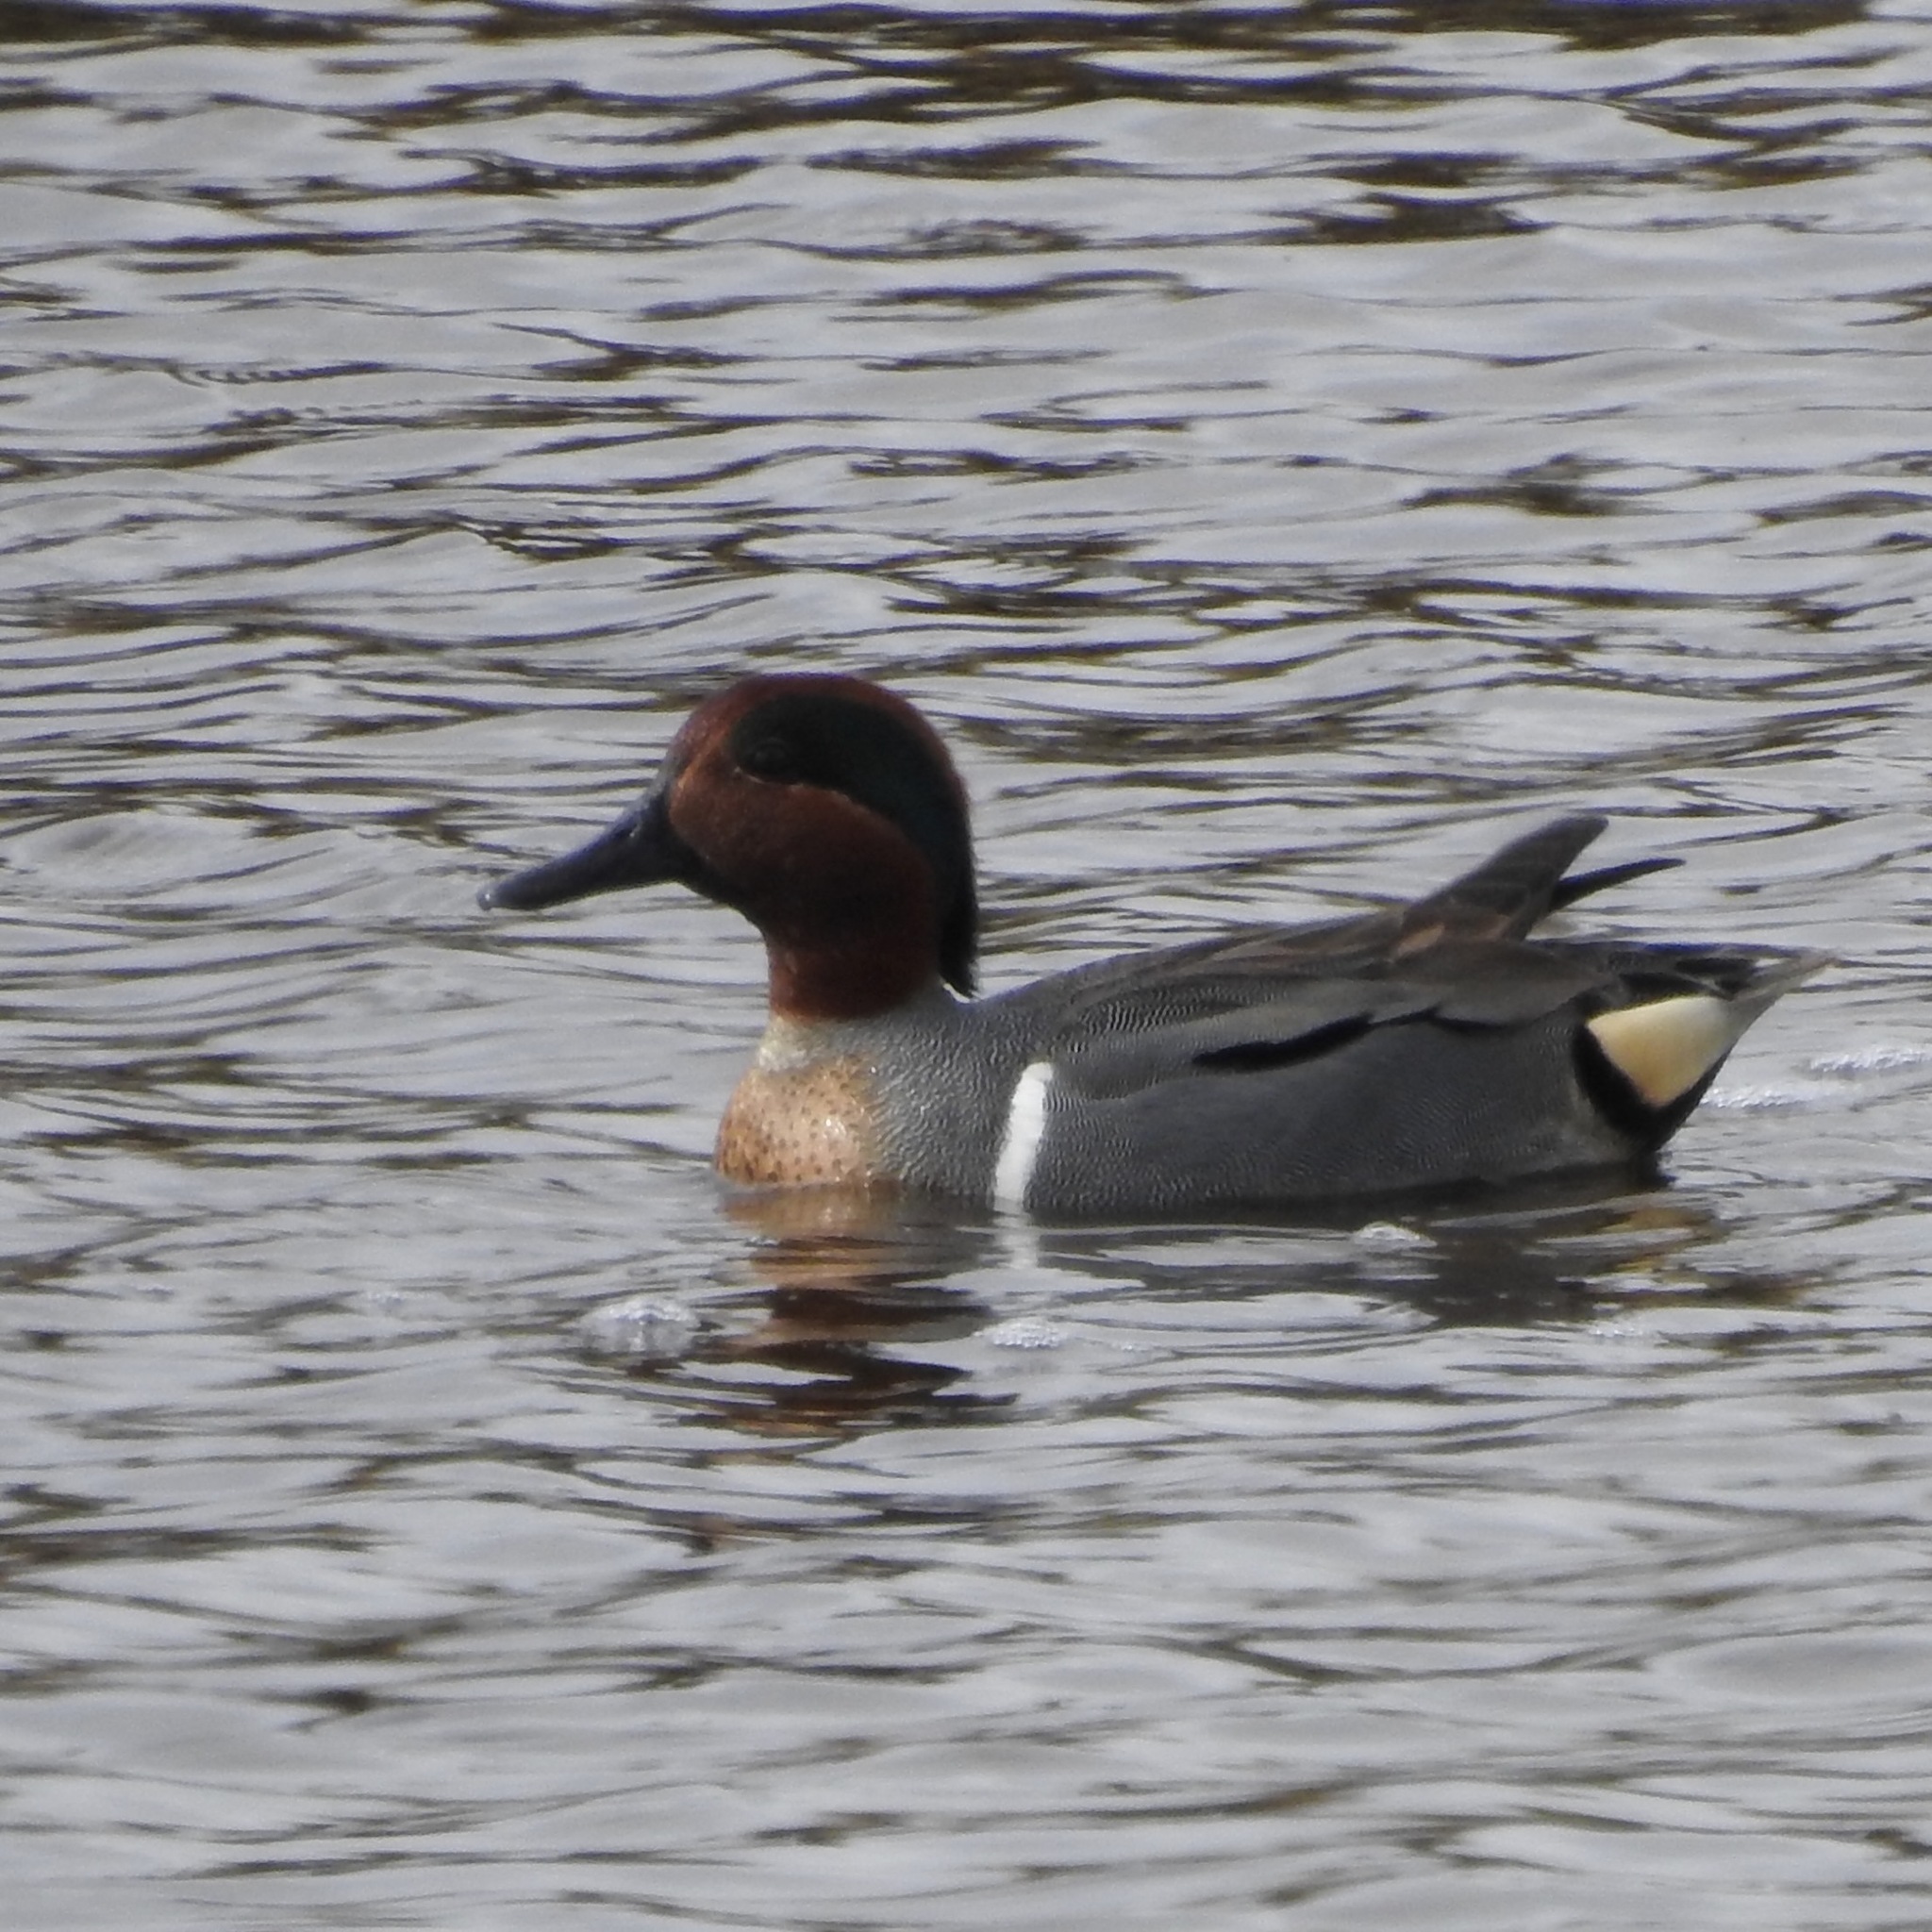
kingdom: Animalia
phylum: Chordata
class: Aves
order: Anseriformes
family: Anatidae
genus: Anas
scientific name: Anas crecca
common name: Eurasian teal
